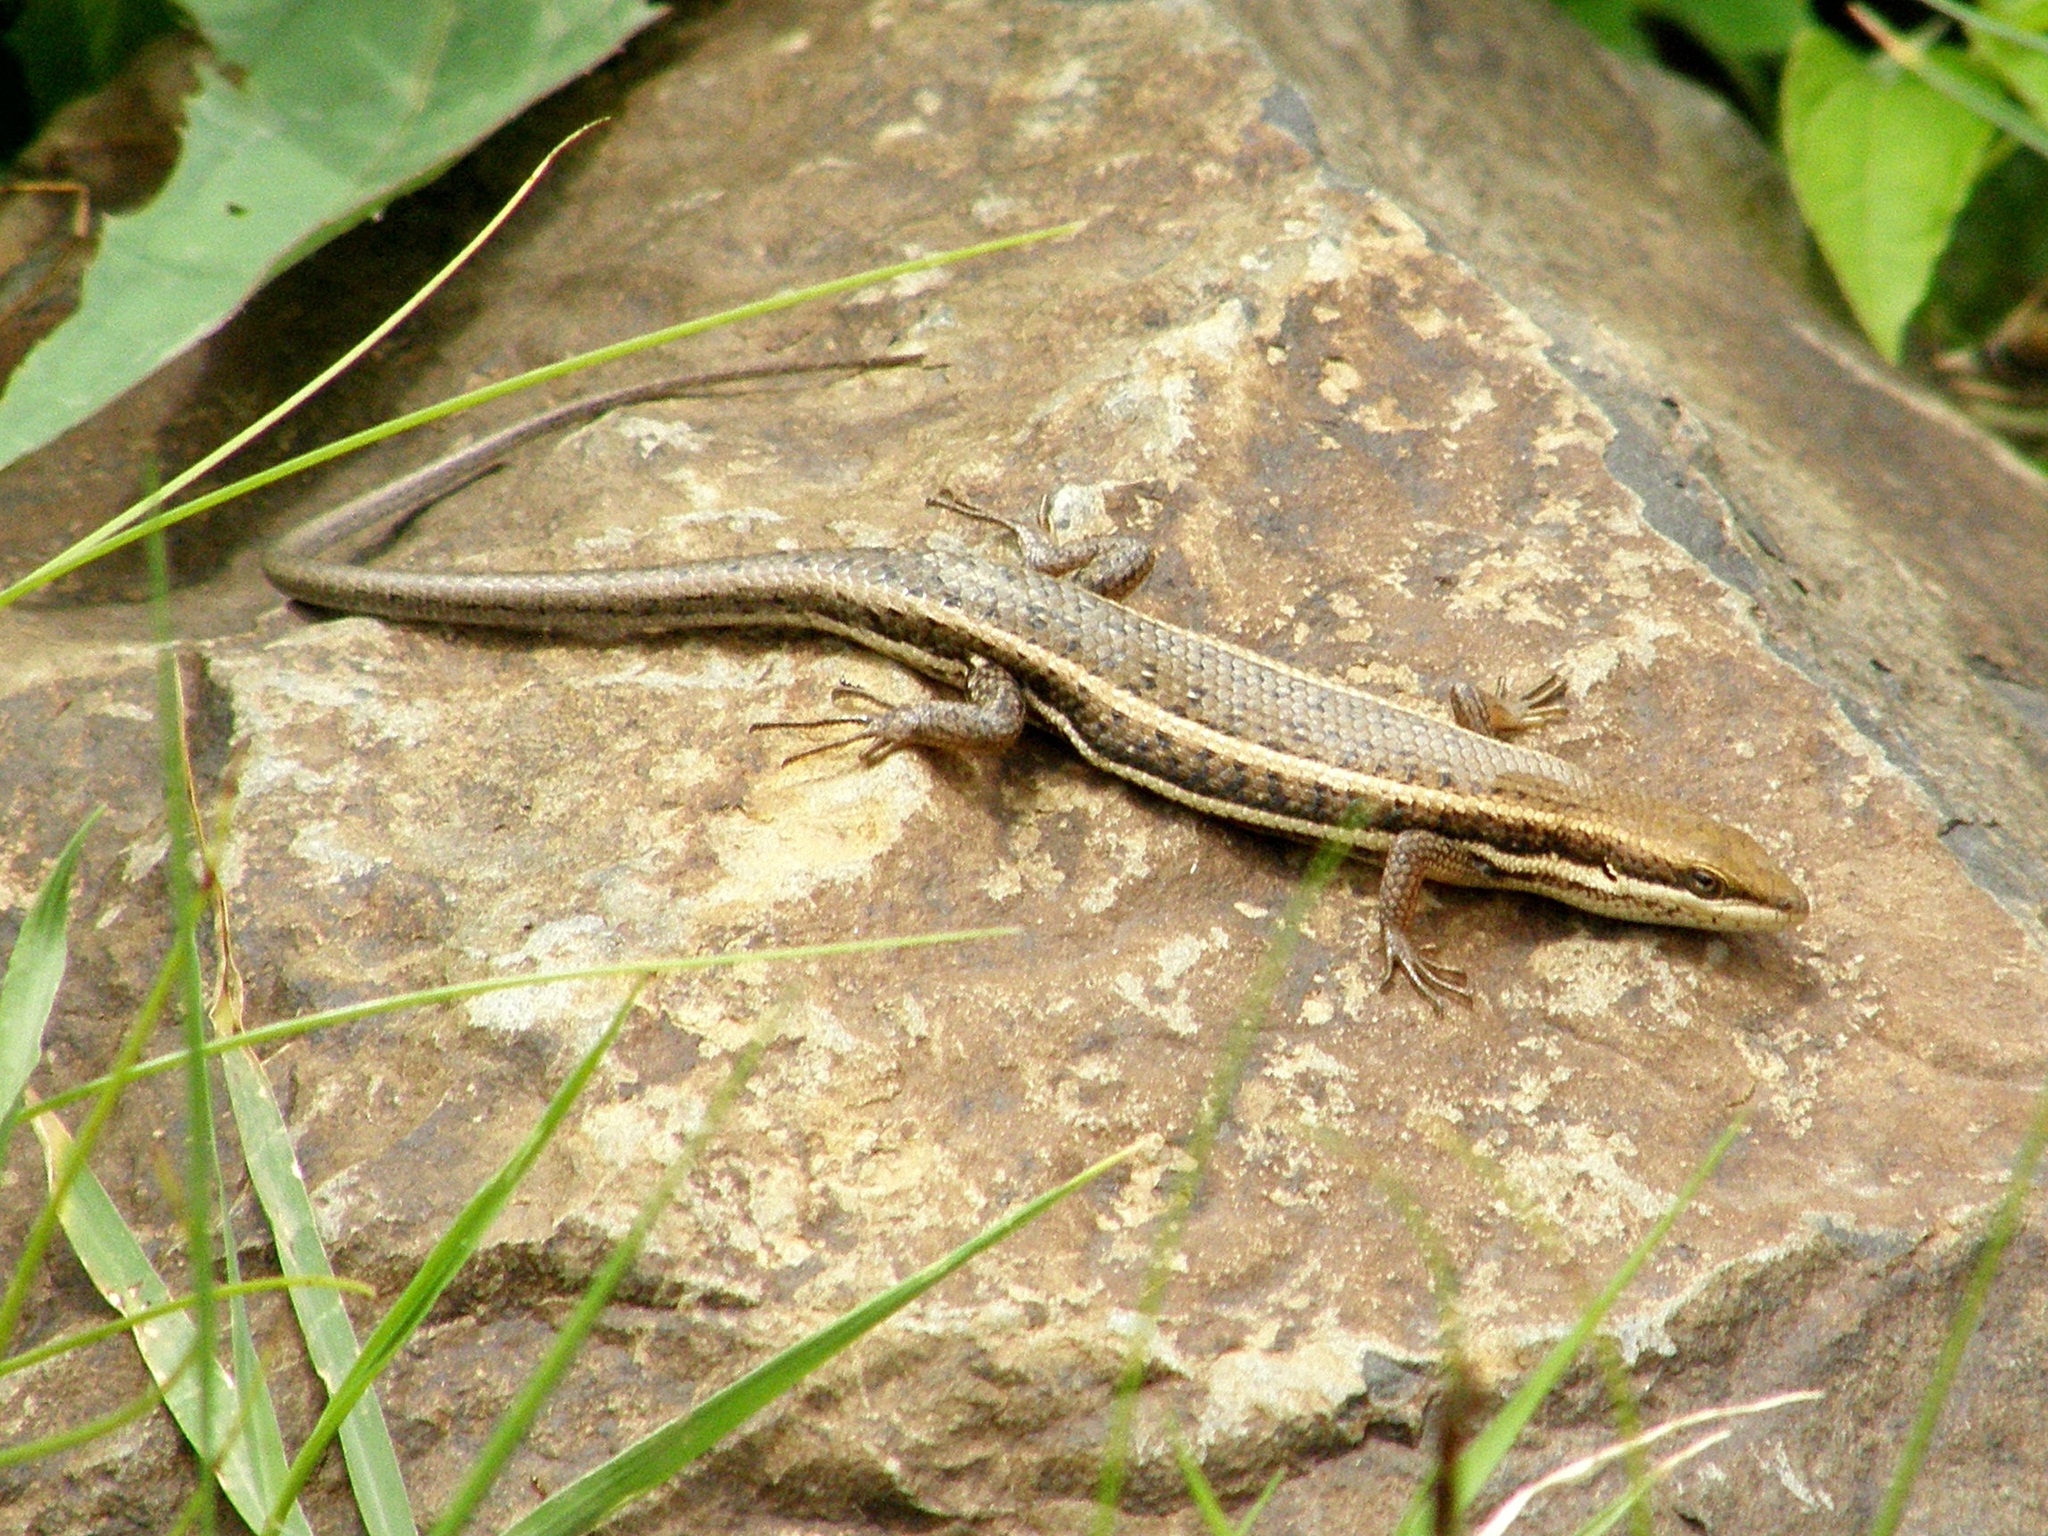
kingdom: Animalia
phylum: Chordata
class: Squamata
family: Scincidae
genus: Trachylepis
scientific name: Trachylepis varia
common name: Eastern variable skink
